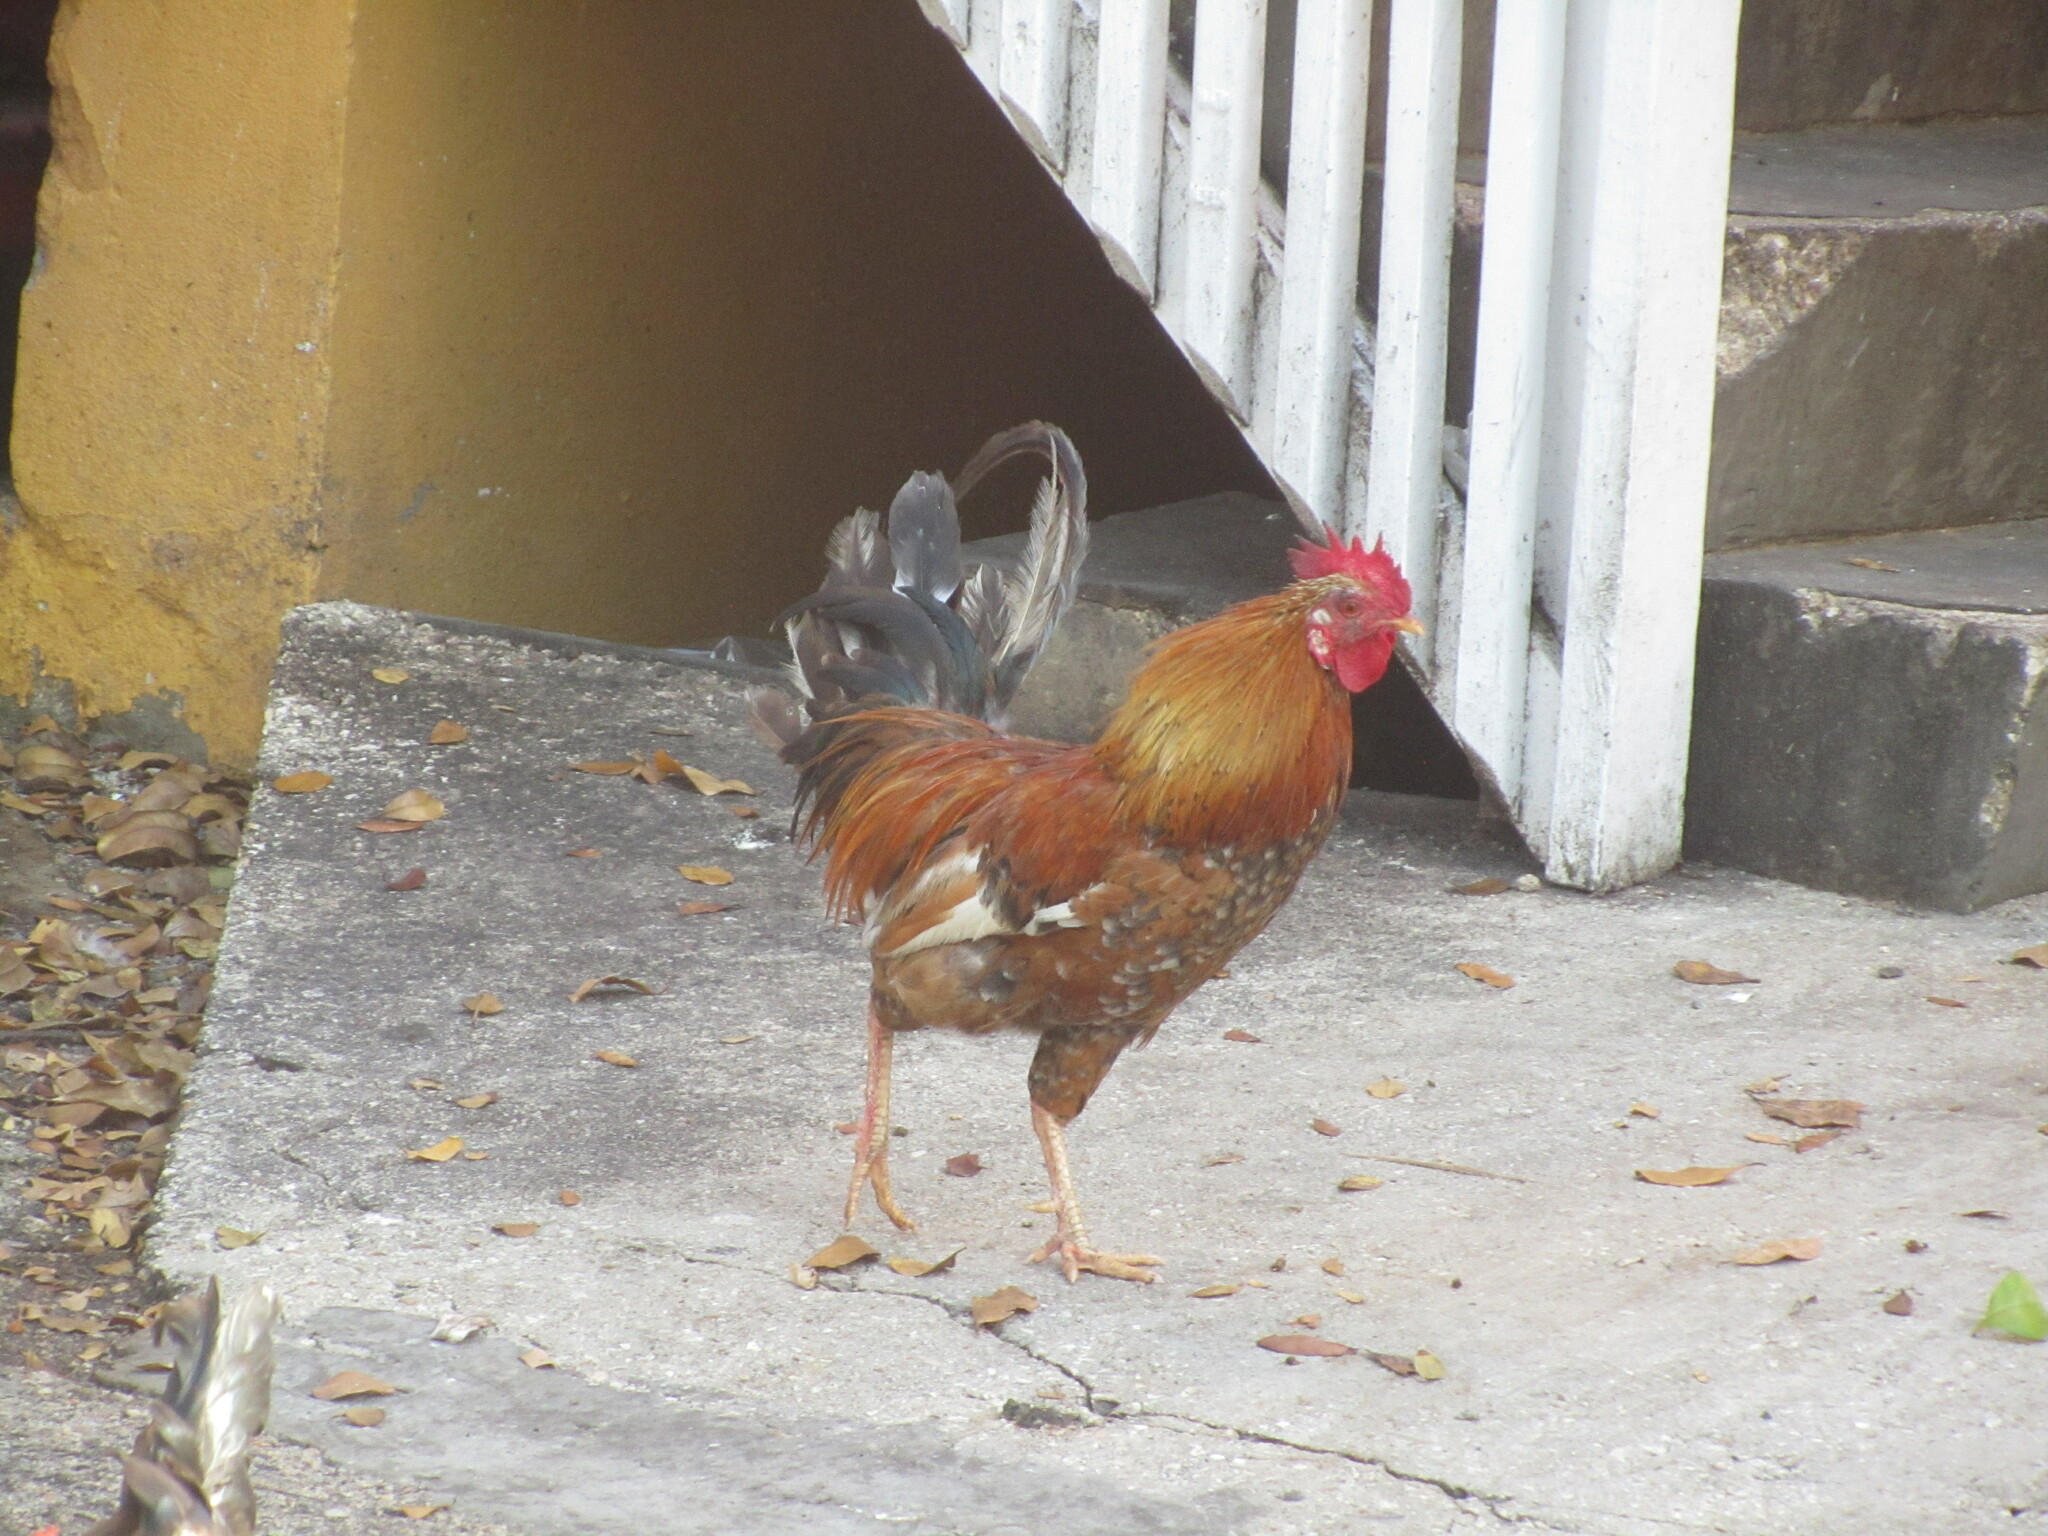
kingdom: Animalia
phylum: Chordata
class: Aves
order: Galliformes
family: Phasianidae
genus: Gallus
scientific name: Gallus gallus
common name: Red junglefowl
